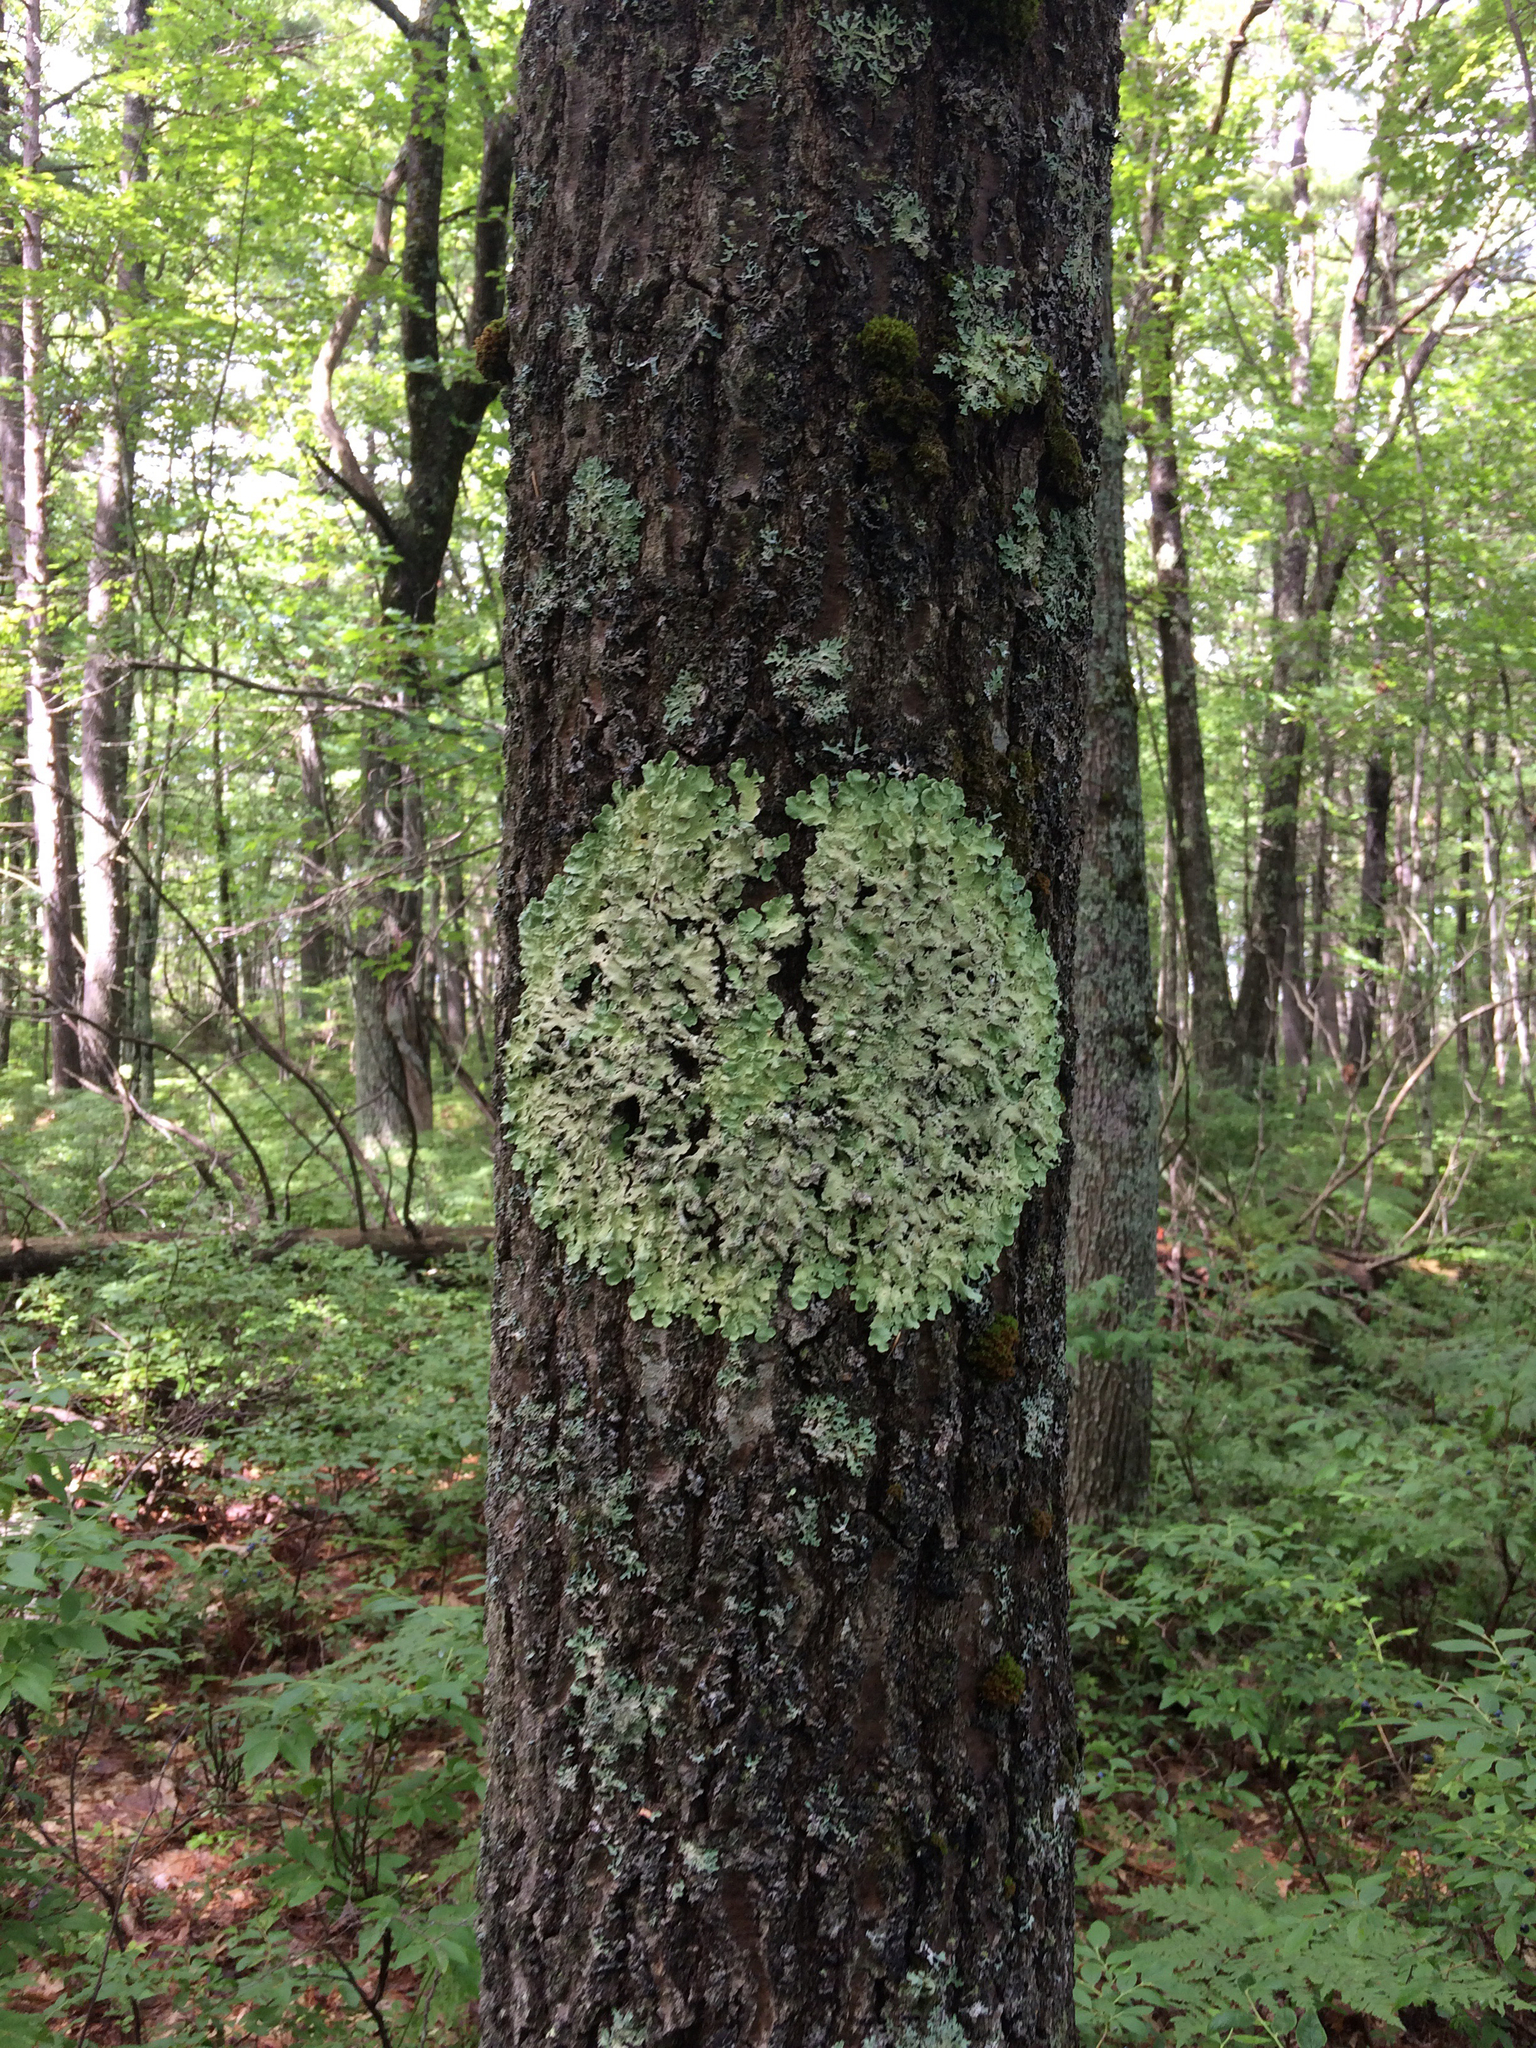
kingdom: Fungi
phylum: Ascomycota
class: Lecanoromycetes
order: Lecanorales
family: Parmeliaceae
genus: Flavoparmelia
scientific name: Flavoparmelia caperata
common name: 40-mile per hour lichen
